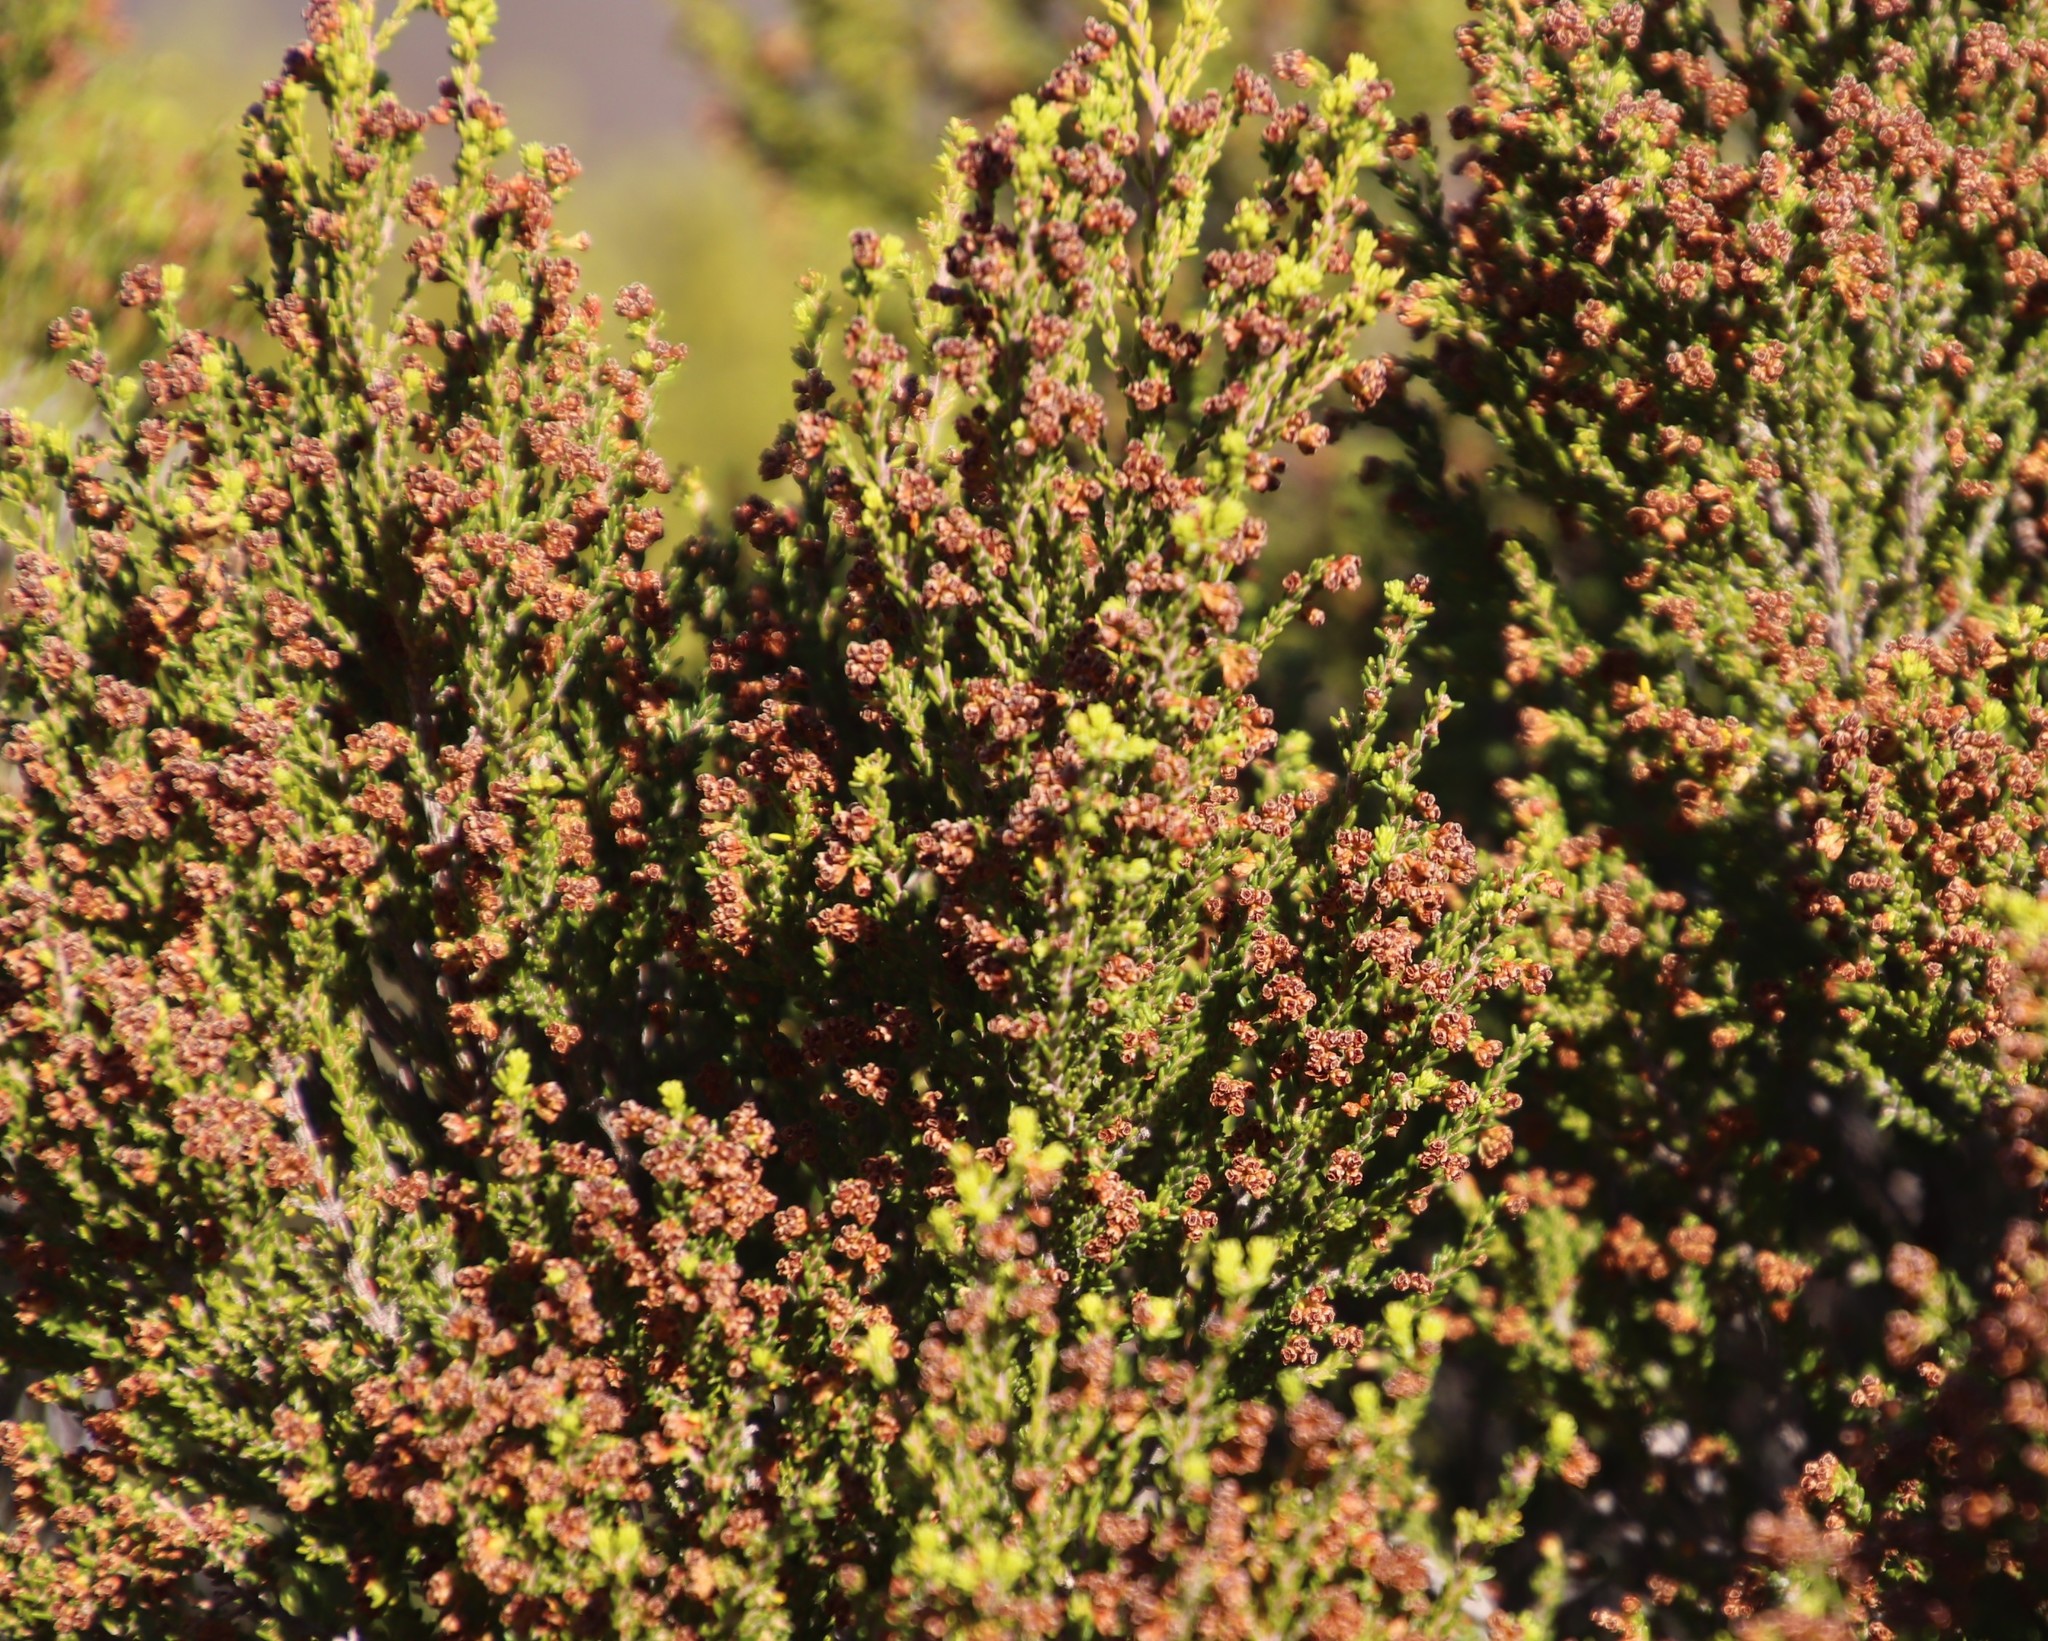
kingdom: Plantae
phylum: Tracheophyta
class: Magnoliopsida
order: Ericales
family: Ericaceae
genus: Erica
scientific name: Erica tristis
